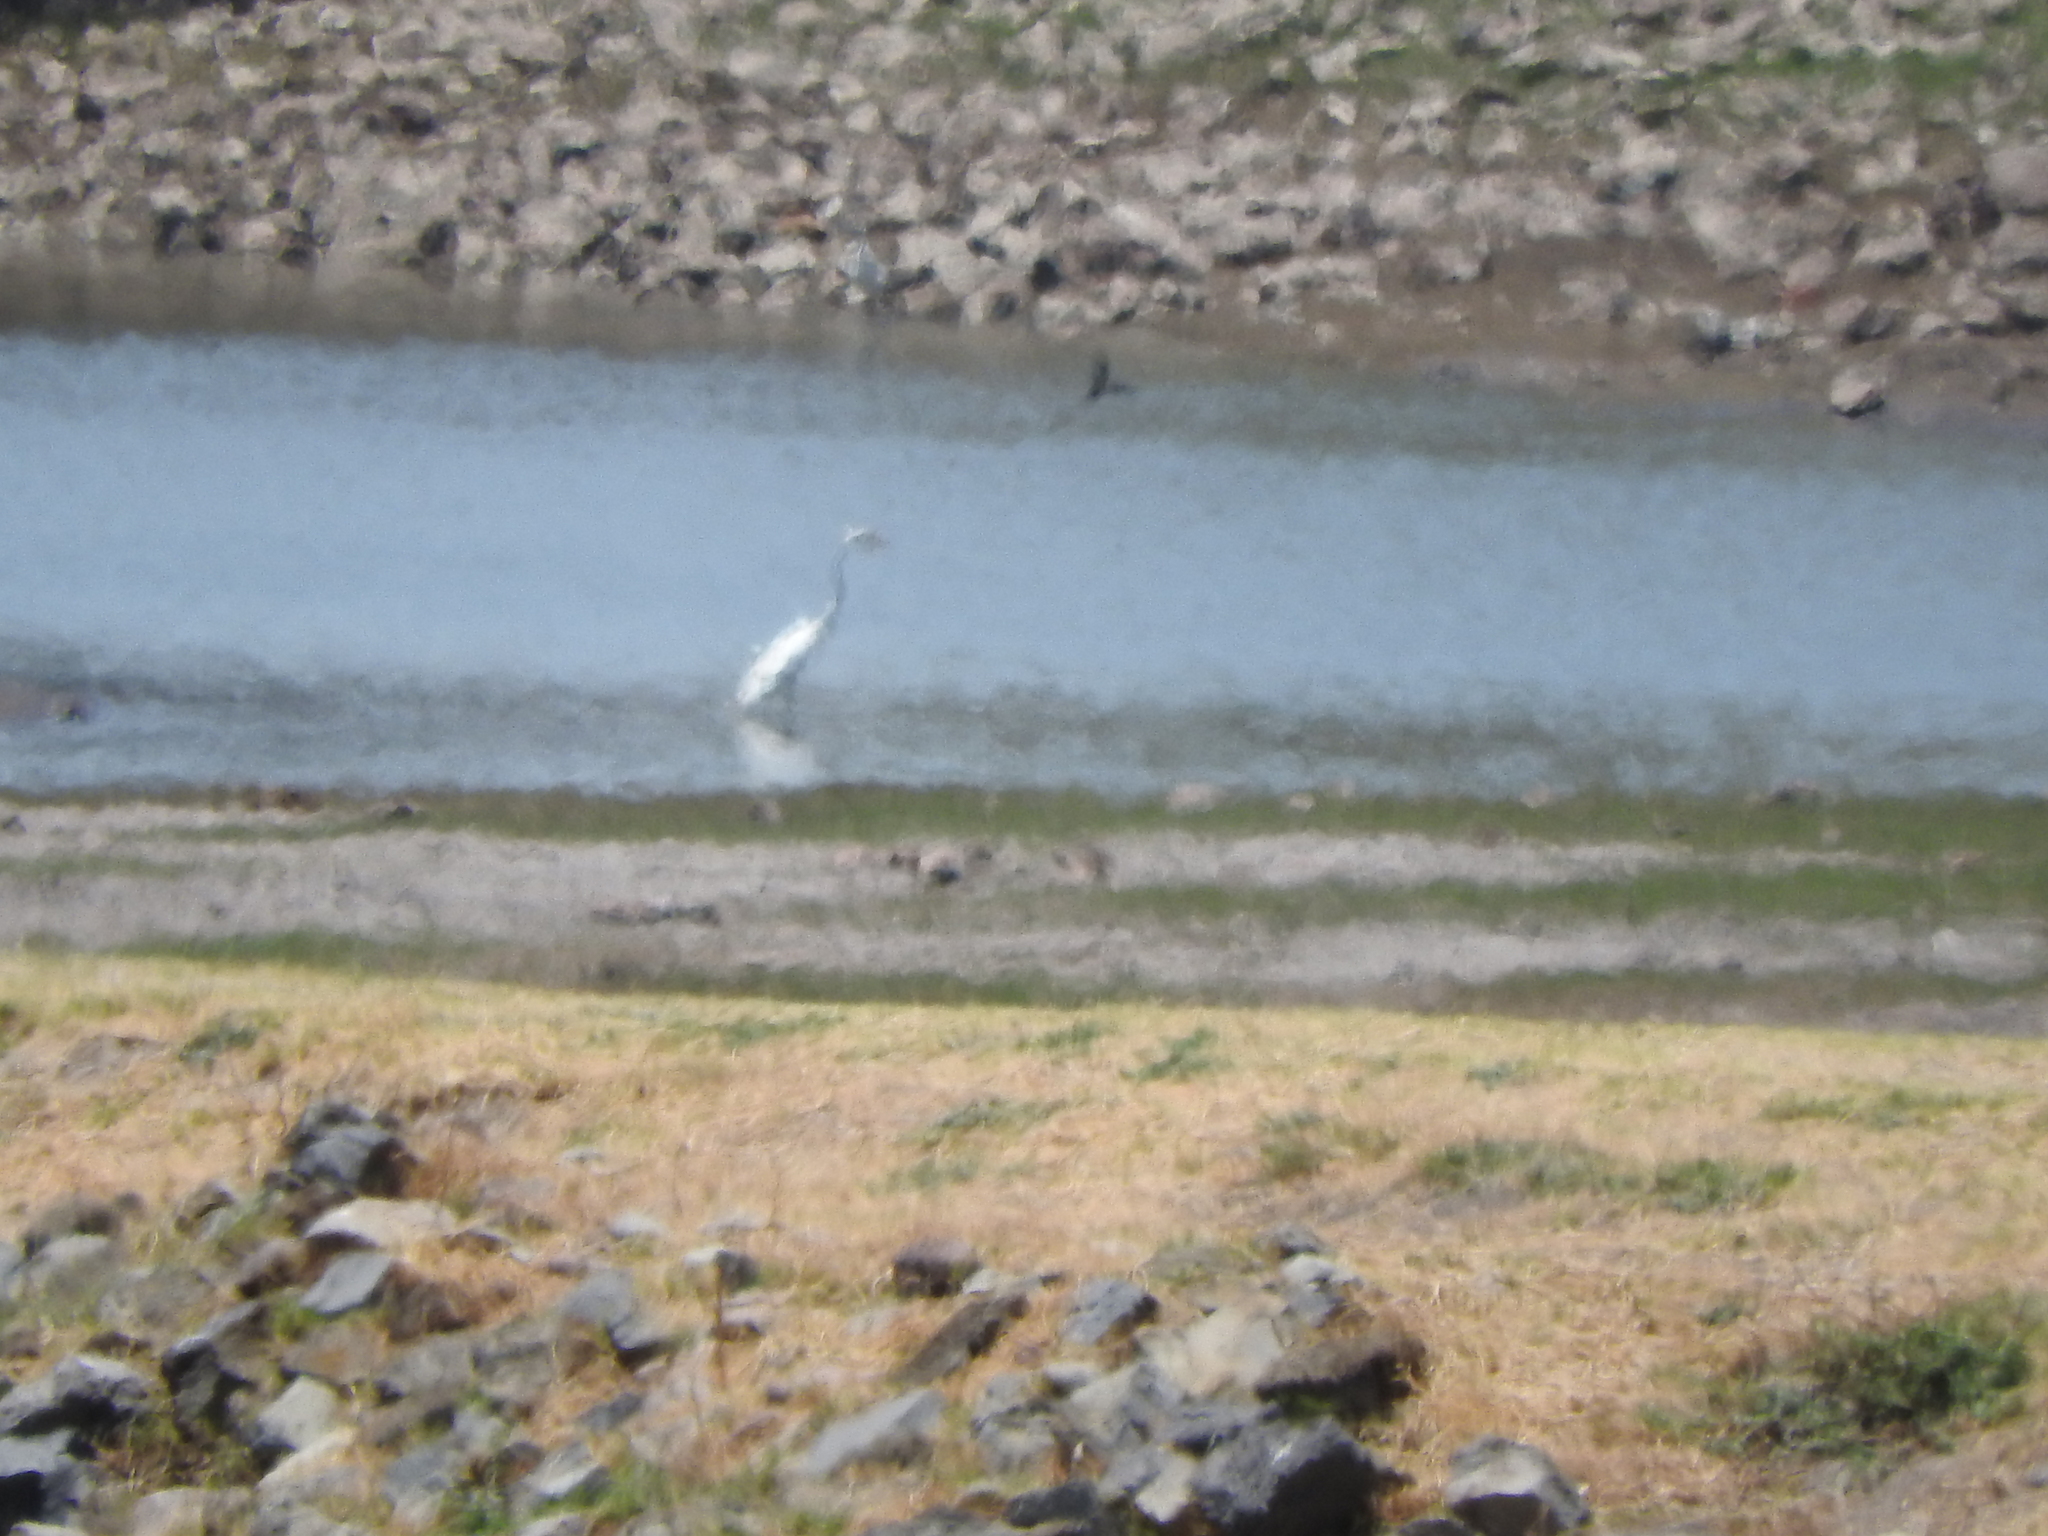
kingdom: Animalia
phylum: Chordata
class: Aves
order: Pelecaniformes
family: Ardeidae
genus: Ardea
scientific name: Ardea alba
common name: Great egret
